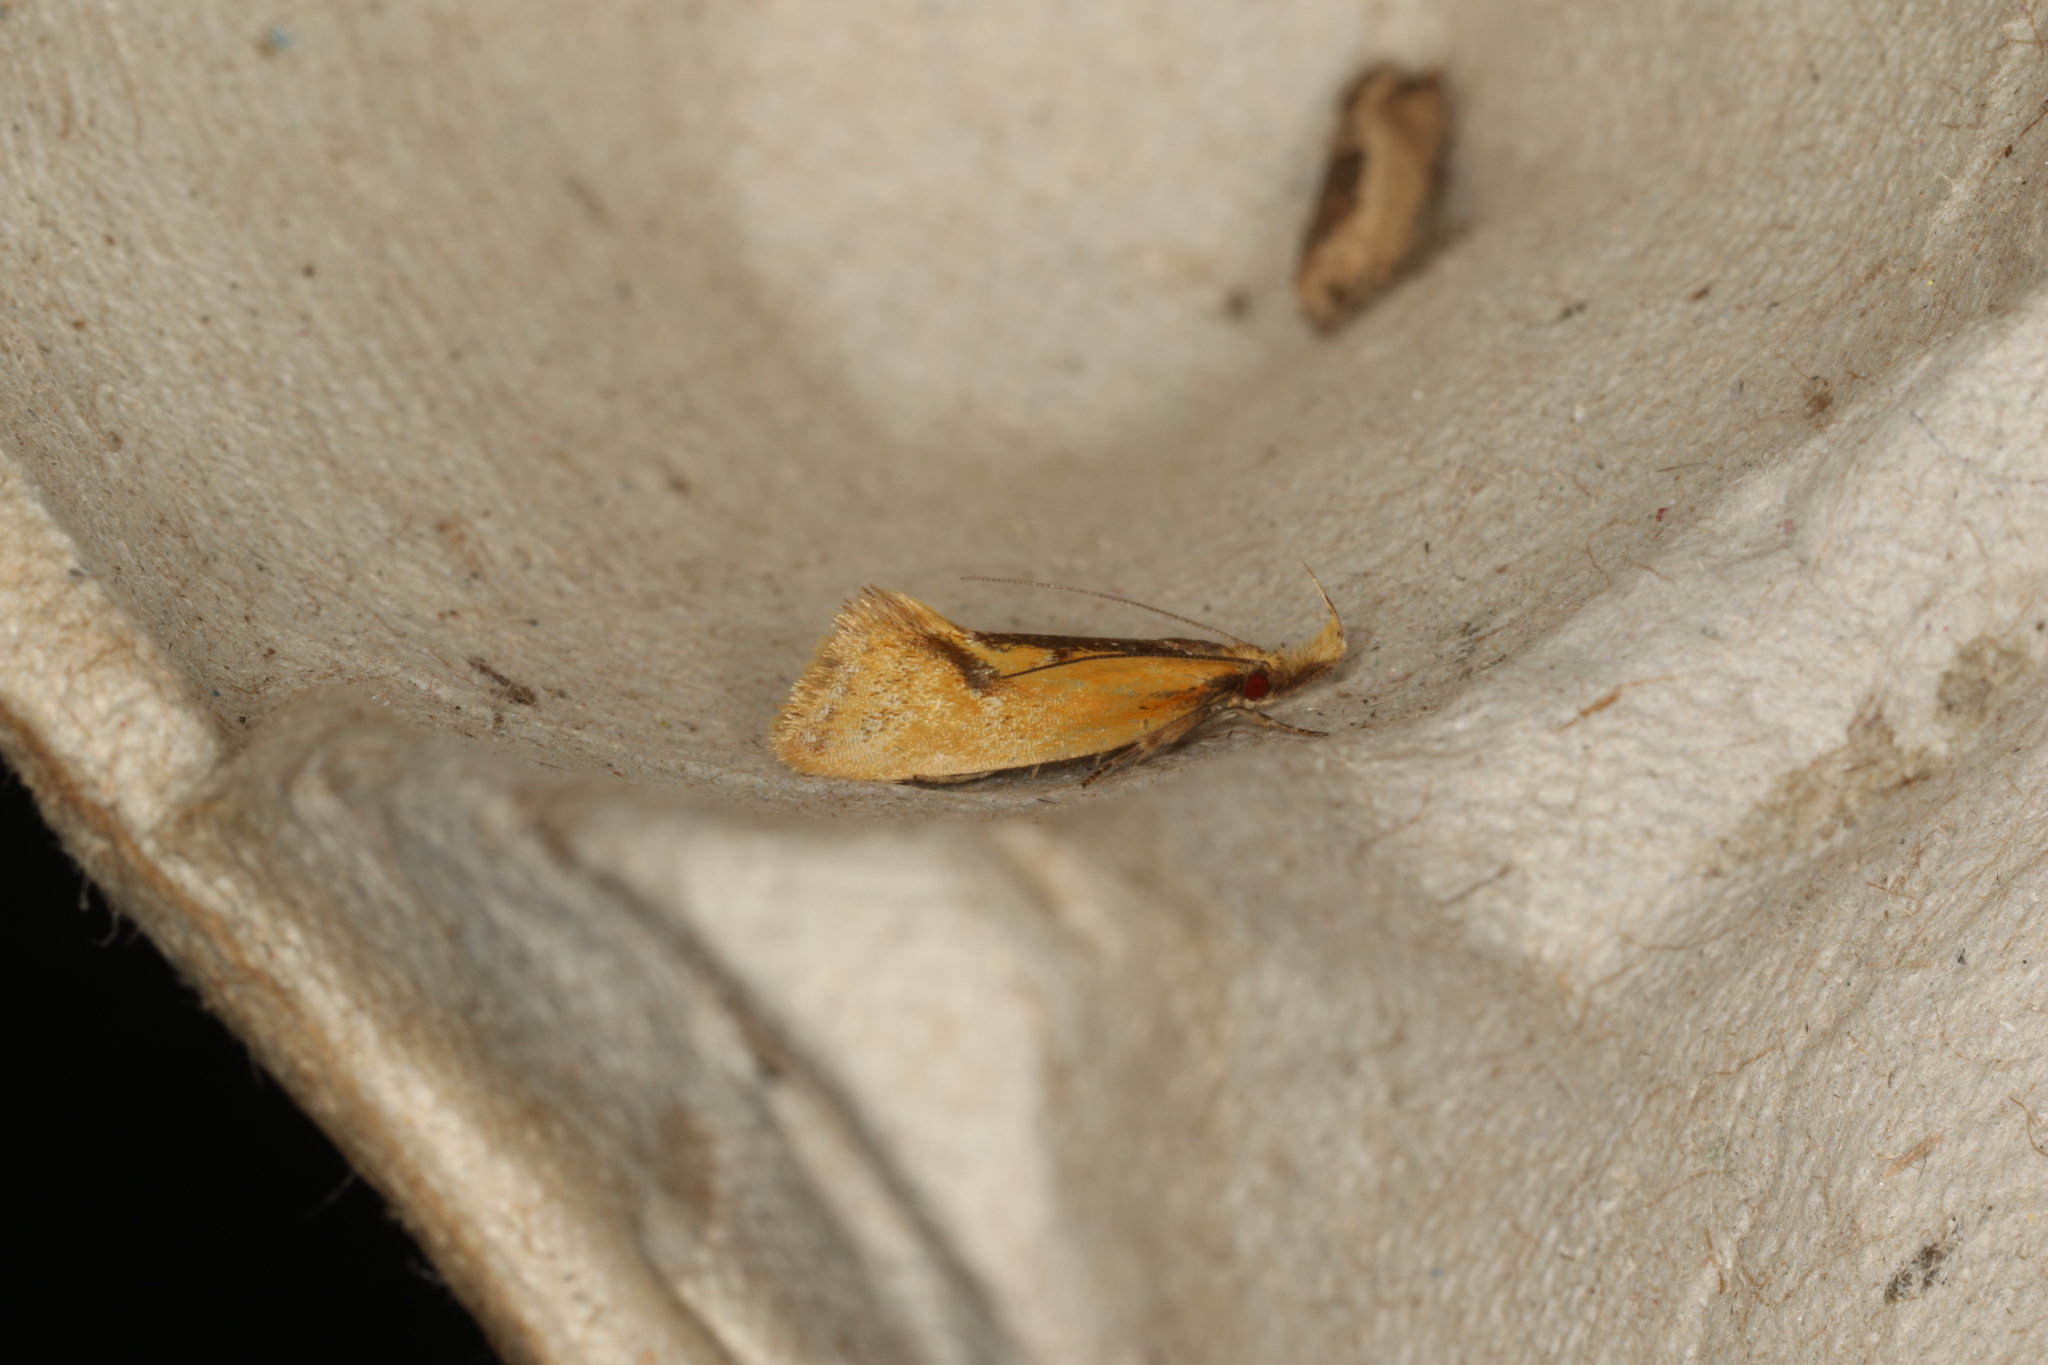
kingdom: Animalia
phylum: Arthropoda
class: Insecta
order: Lepidoptera
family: Oecophoridae
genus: Thema
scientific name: Thema psammoxantha
